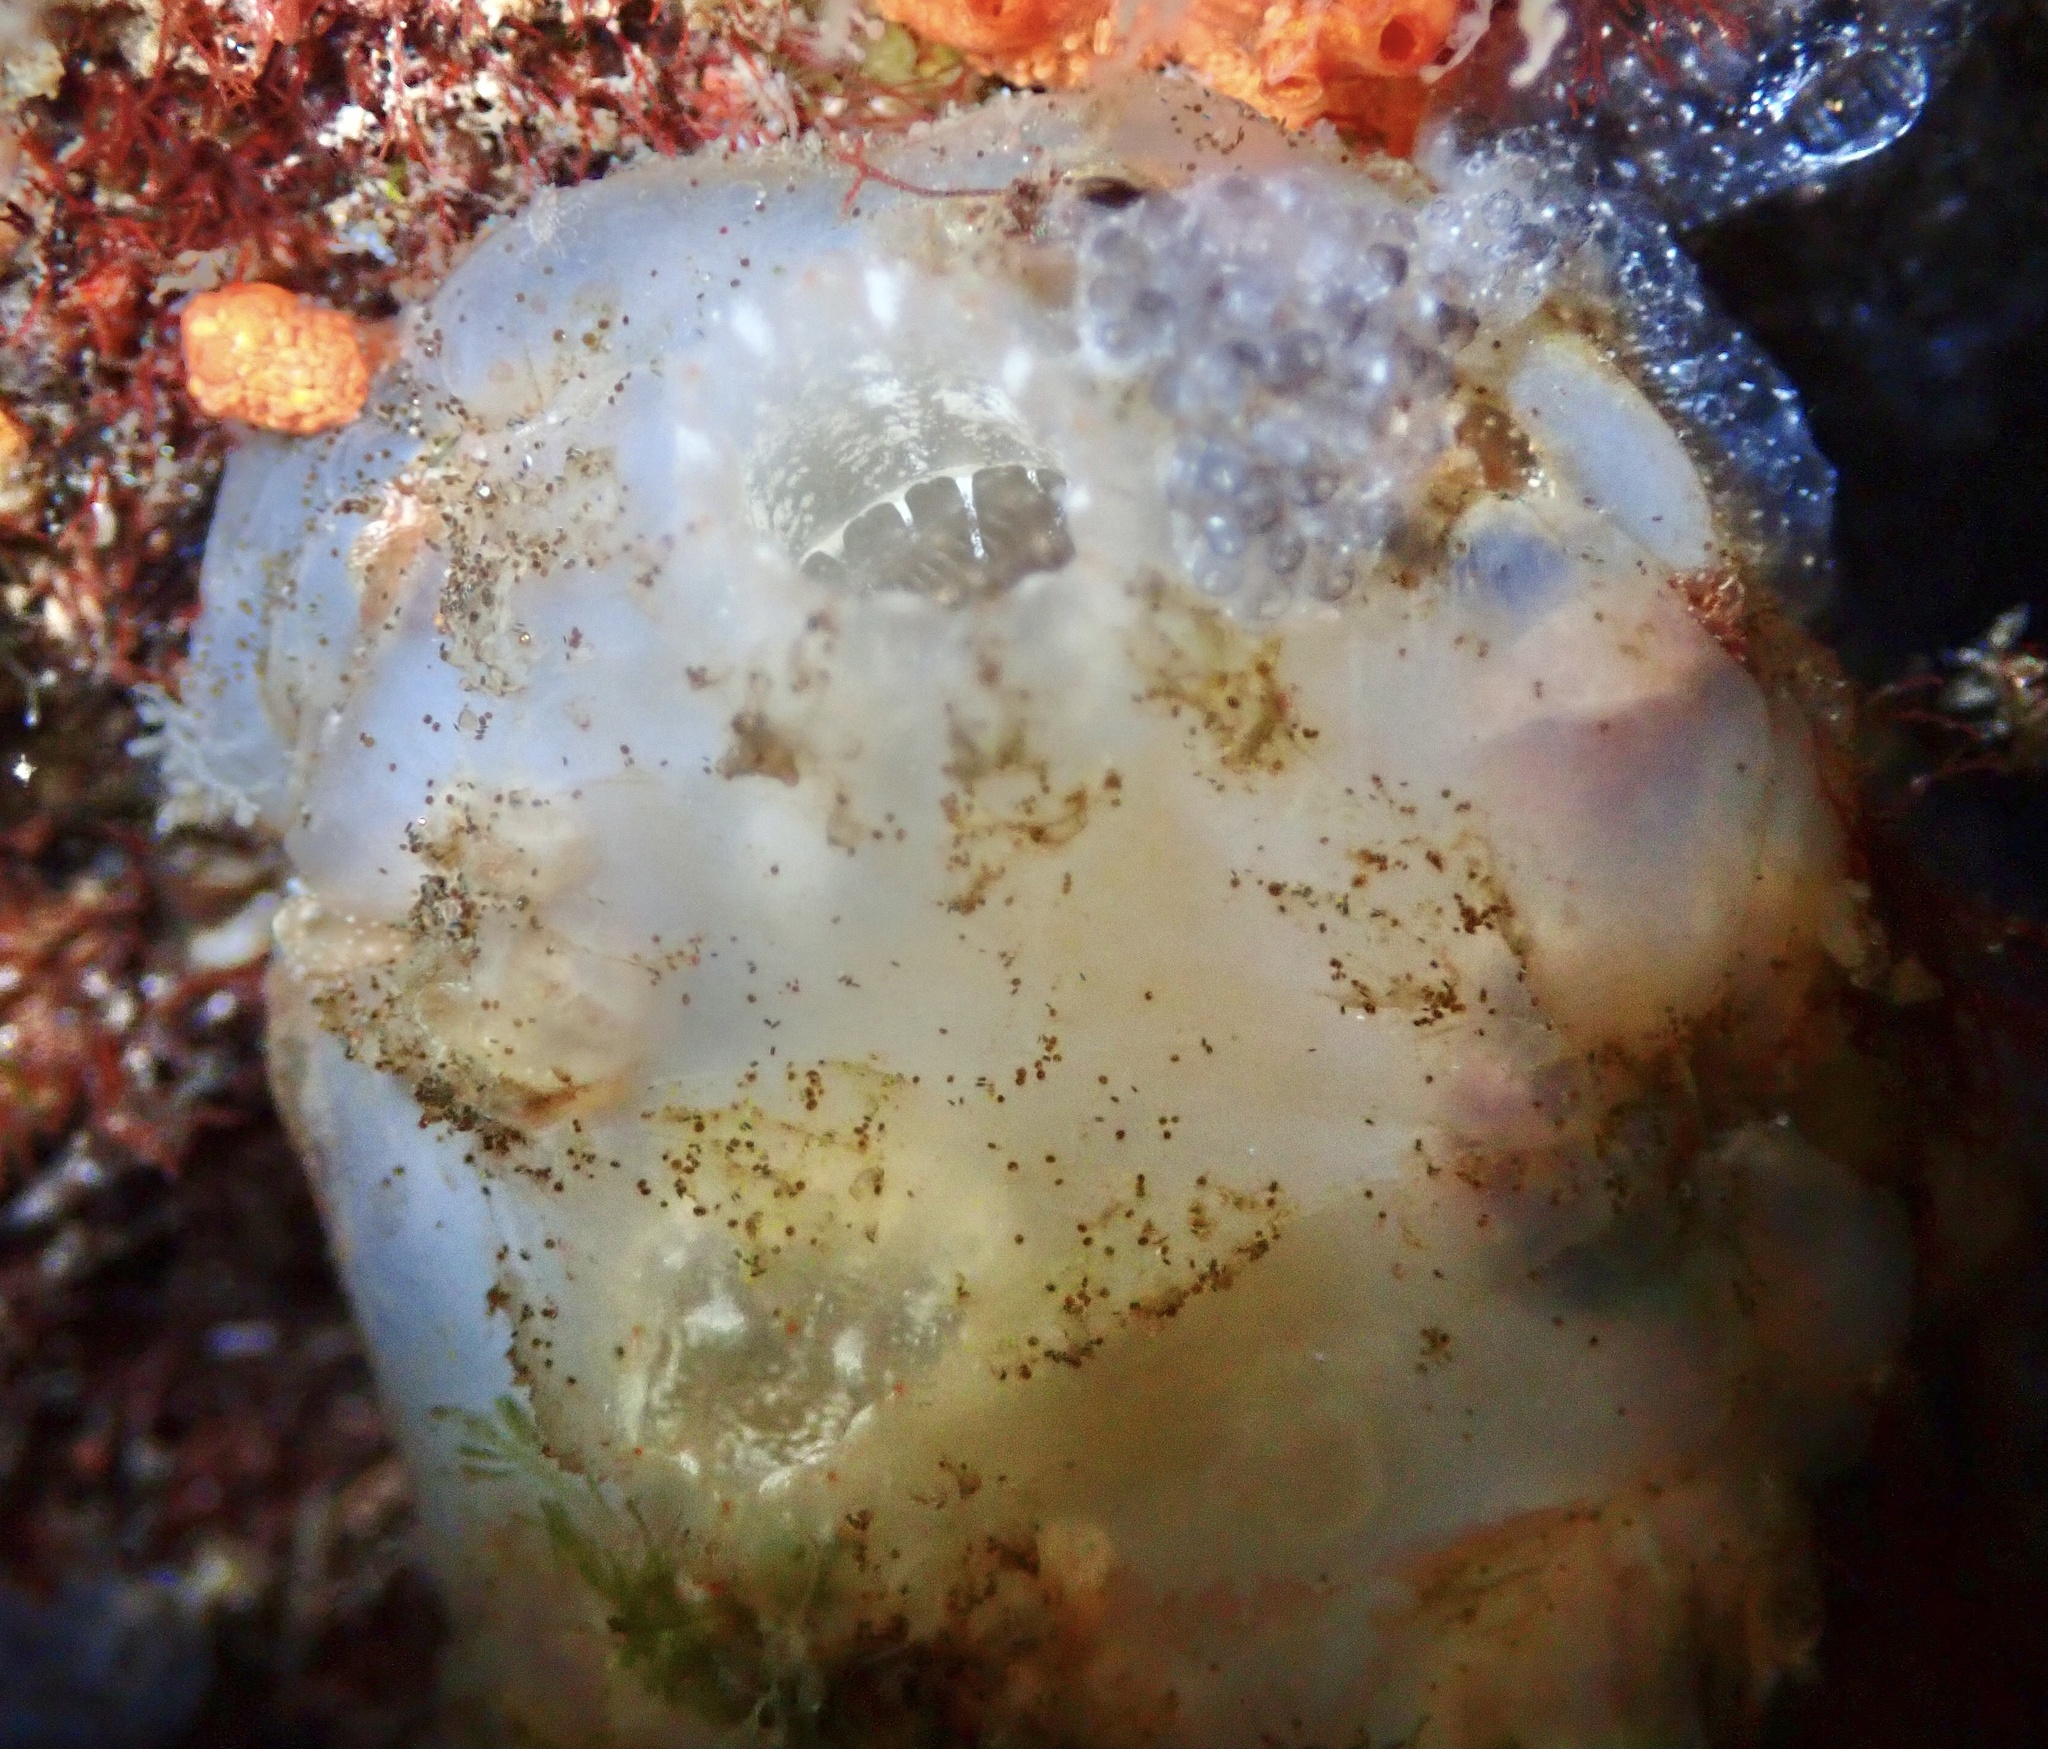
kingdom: Animalia
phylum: Chordata
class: Ascidiacea
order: Phlebobranchia
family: Ascidiidae
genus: Ascidiella
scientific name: Ascidiella aspersa
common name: Dirty sea-squirt
